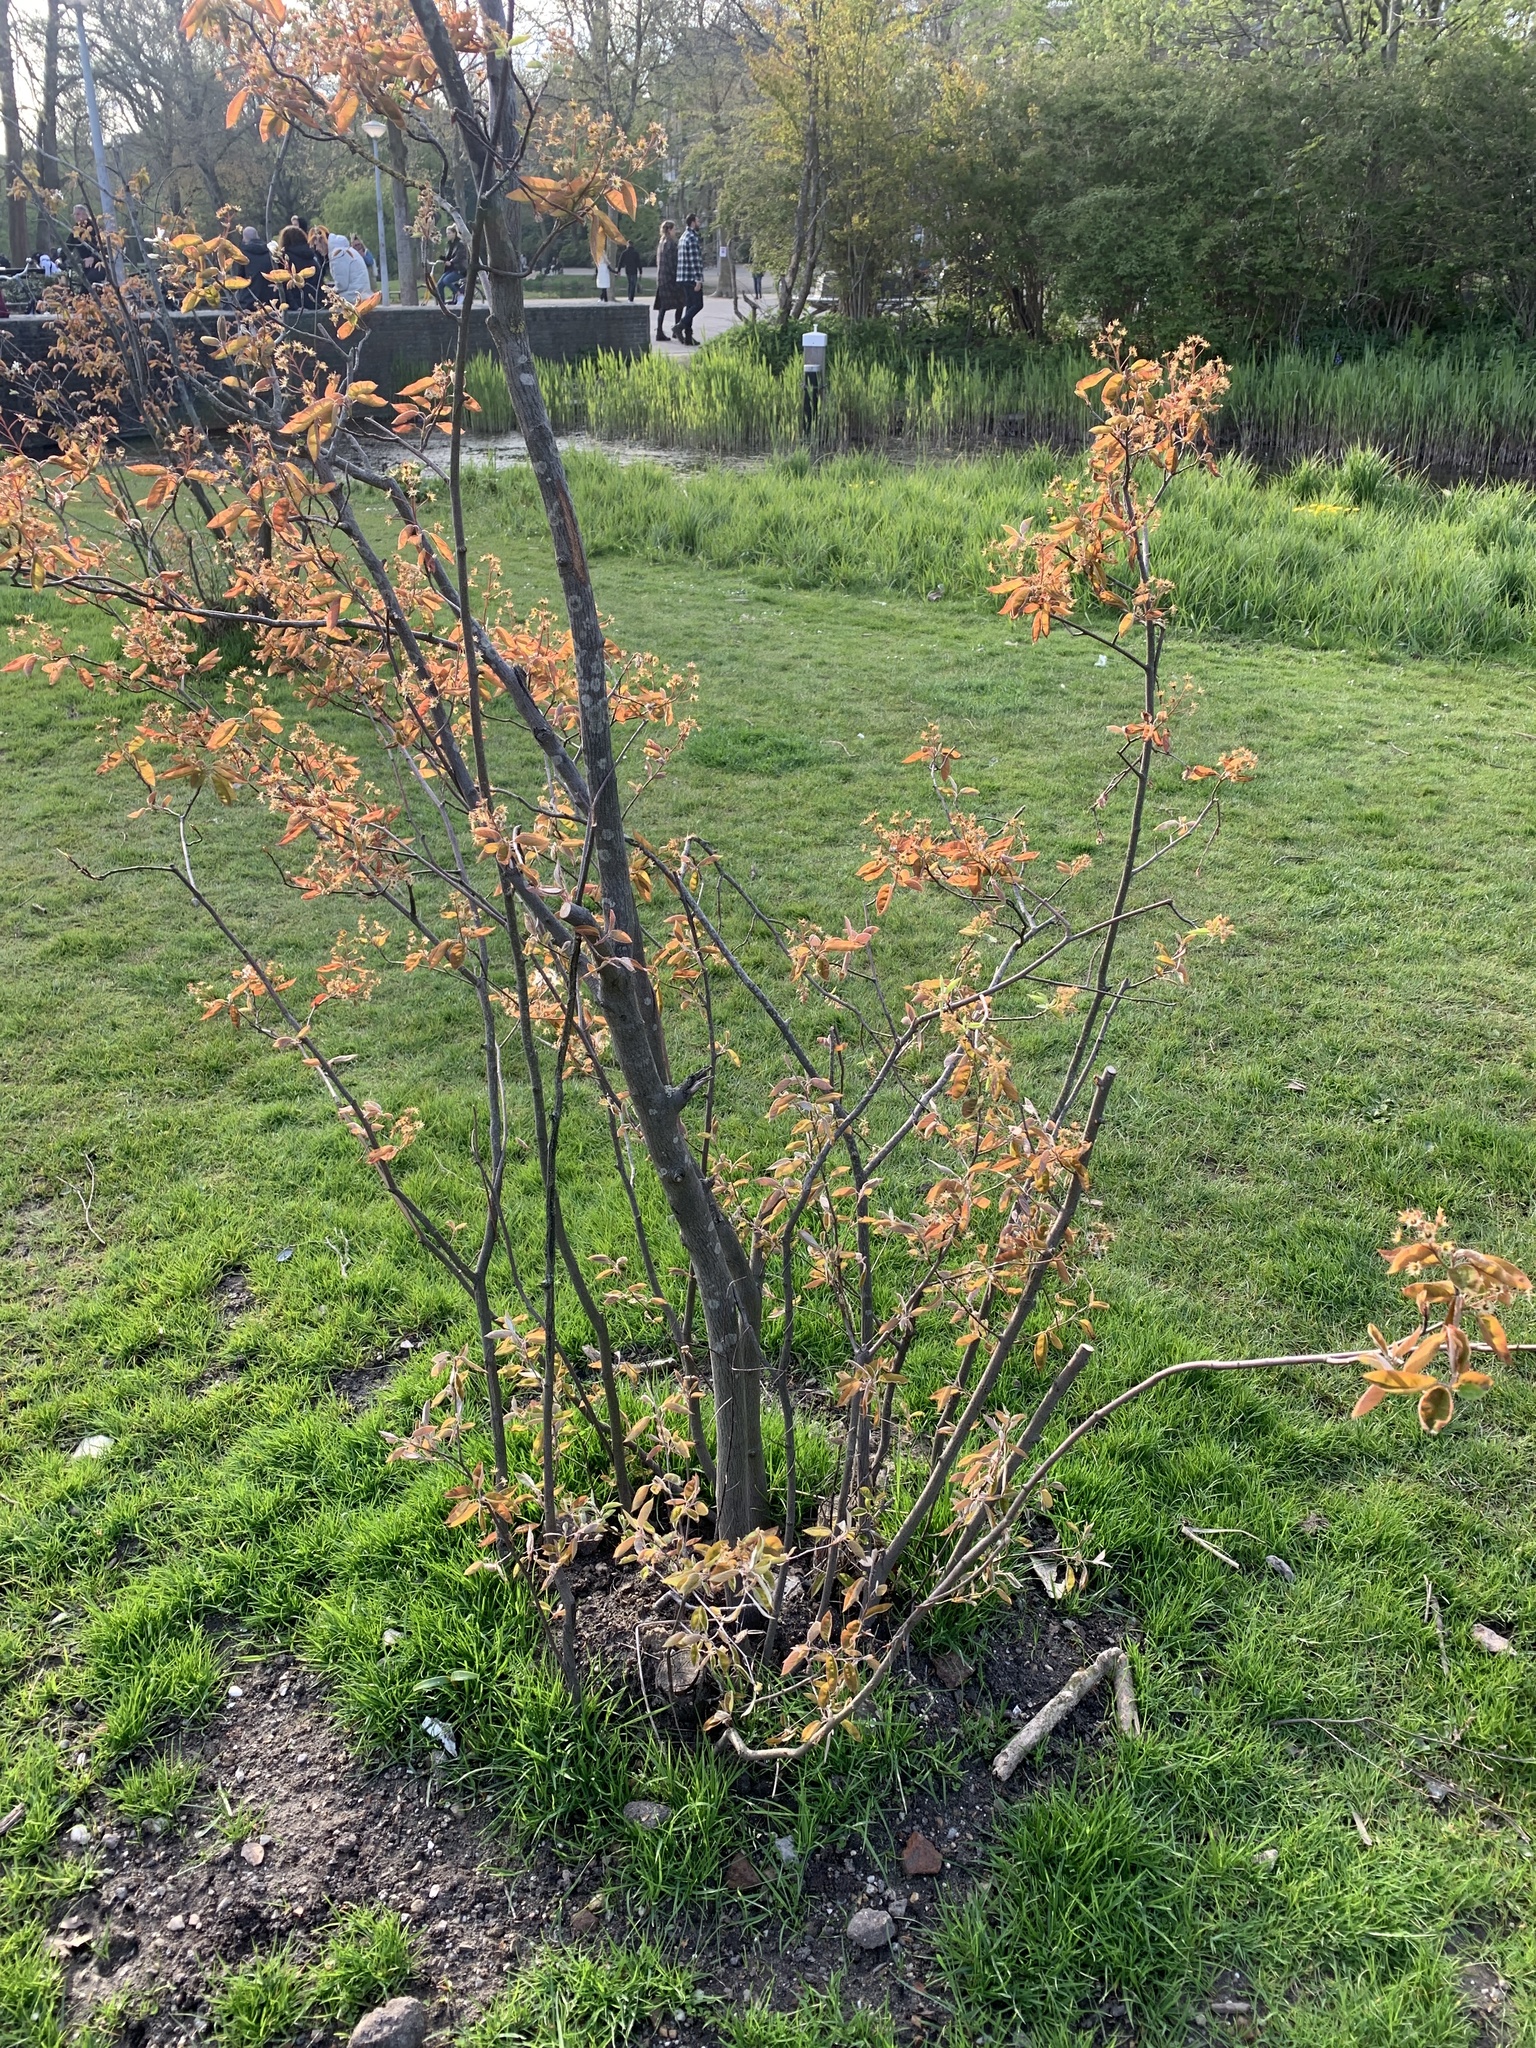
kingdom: Plantae
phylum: Tracheophyta
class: Magnoliopsida
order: Rosales
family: Rosaceae
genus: Amelanchier
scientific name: Amelanchier arborea
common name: Downy serviceberry
